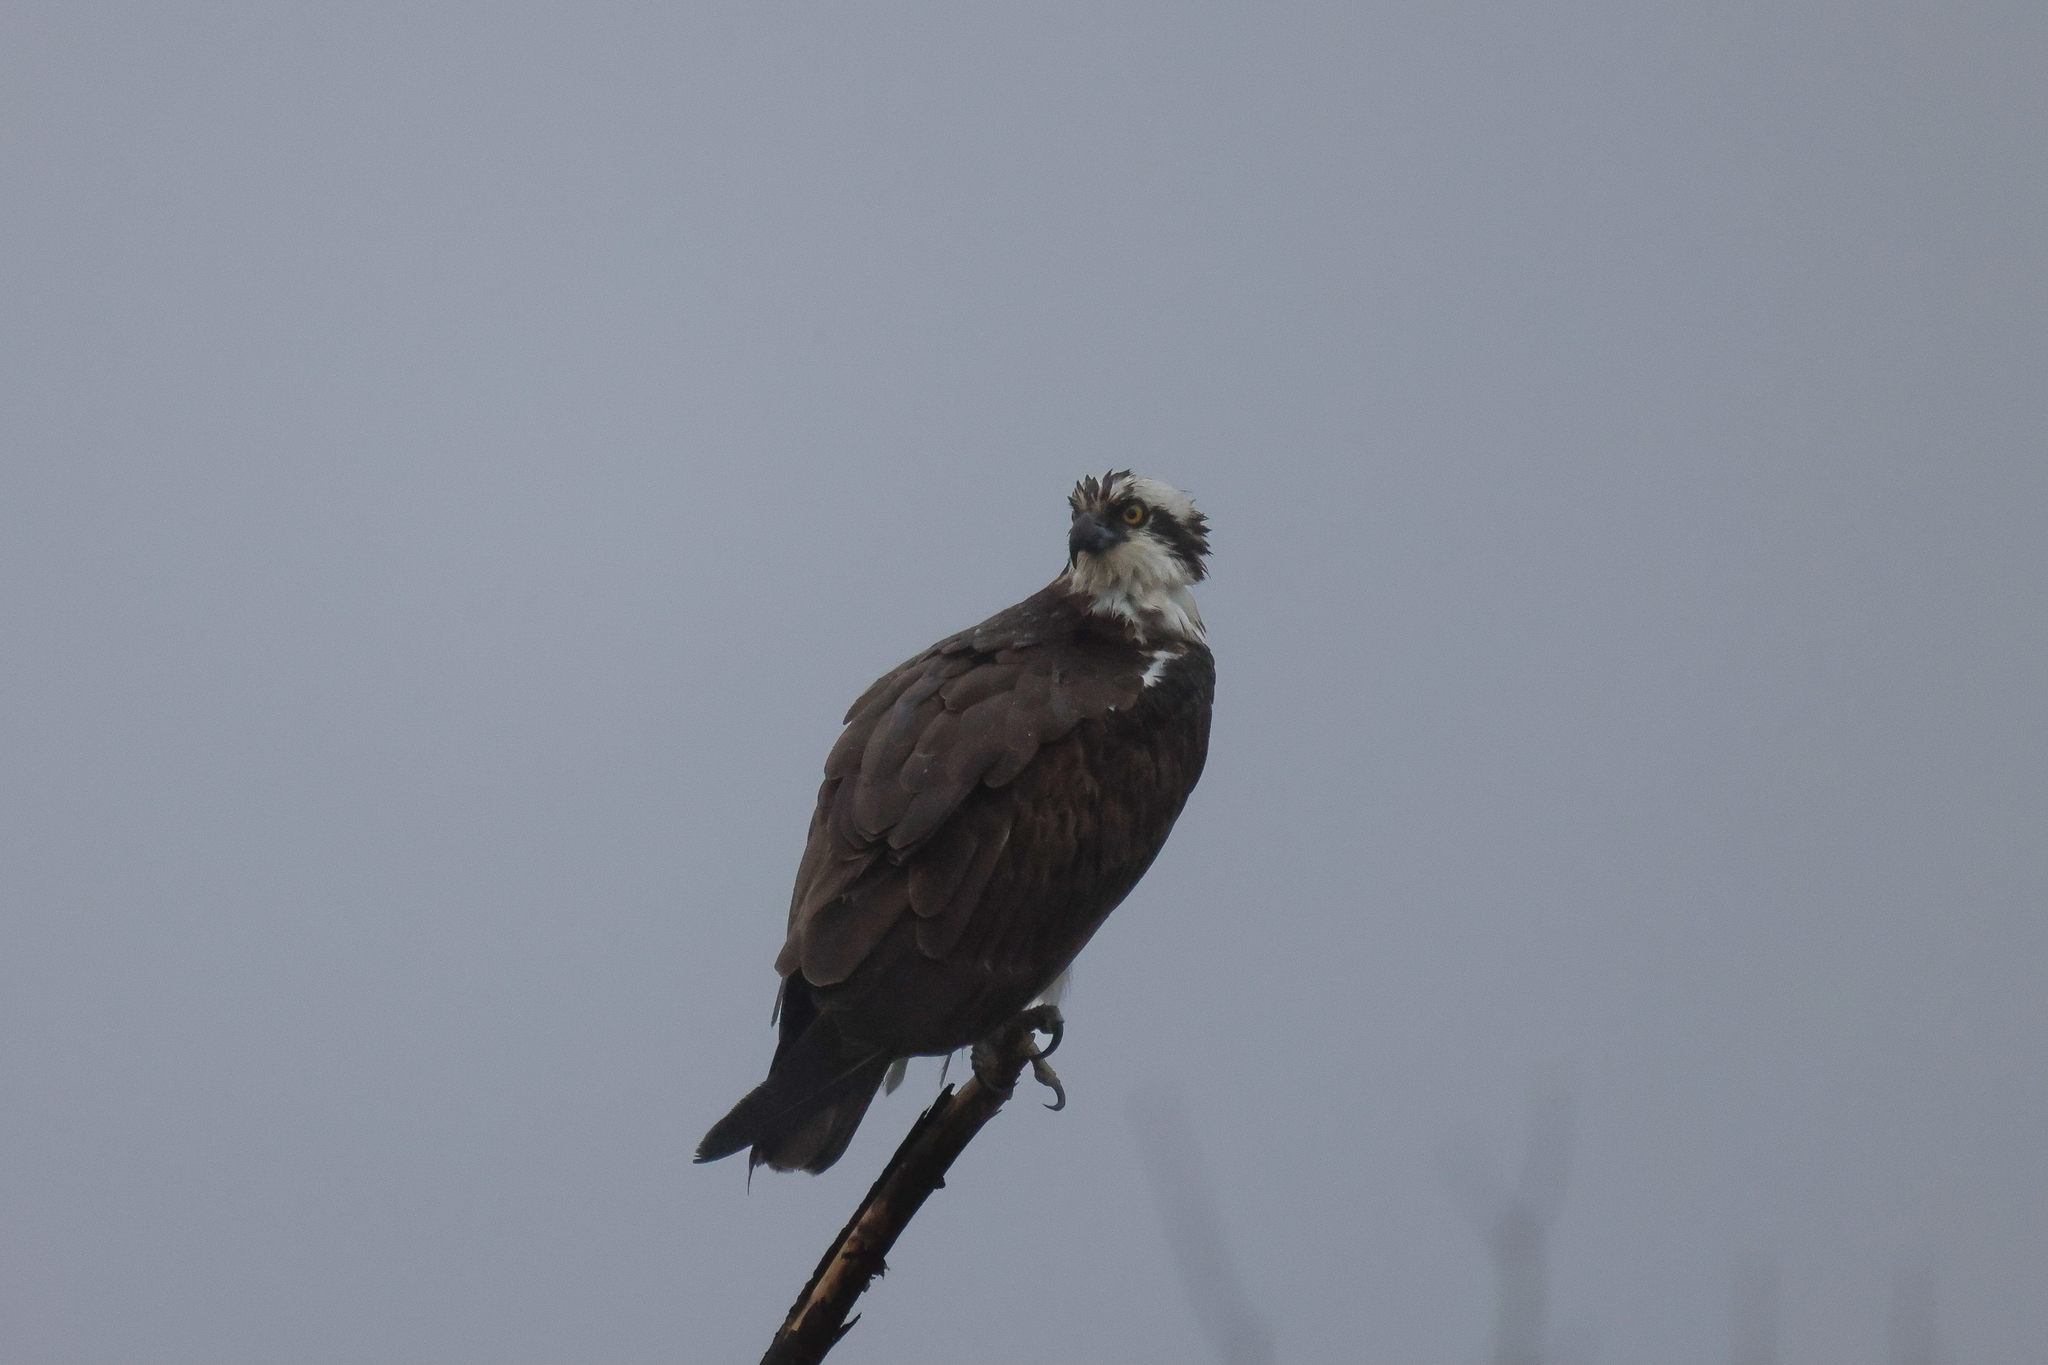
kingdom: Animalia
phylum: Chordata
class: Aves
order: Accipitriformes
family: Pandionidae
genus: Pandion
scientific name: Pandion haliaetus
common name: Osprey
